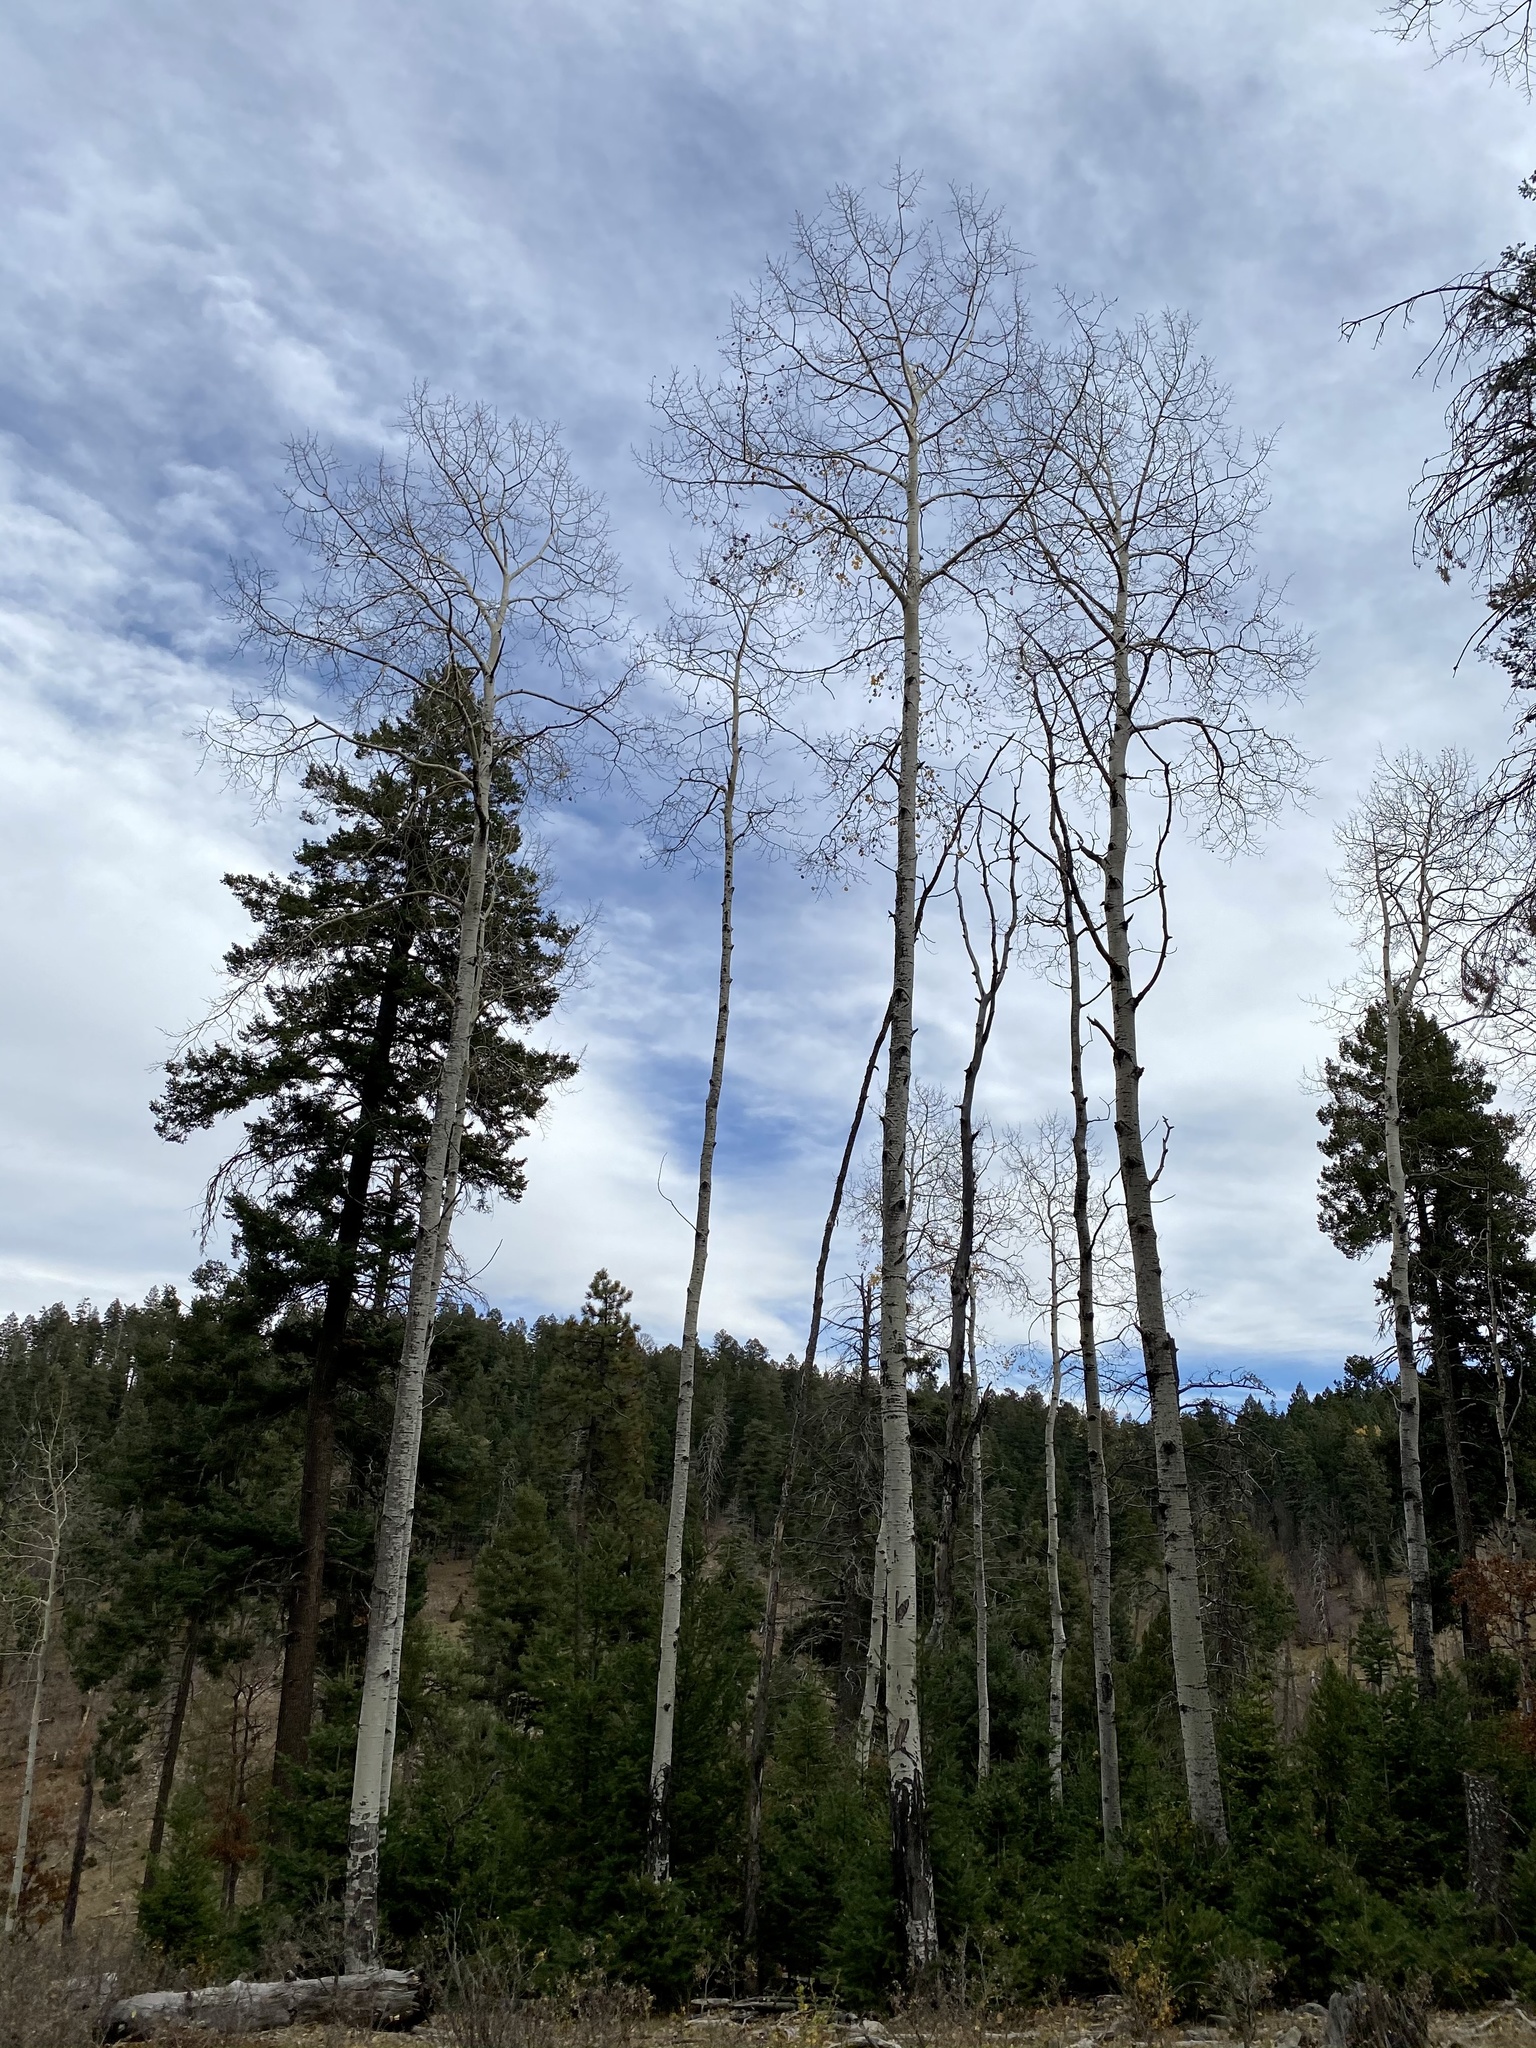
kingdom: Plantae
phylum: Tracheophyta
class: Magnoliopsida
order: Malpighiales
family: Salicaceae
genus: Populus
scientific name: Populus tremuloides
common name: Quaking aspen
